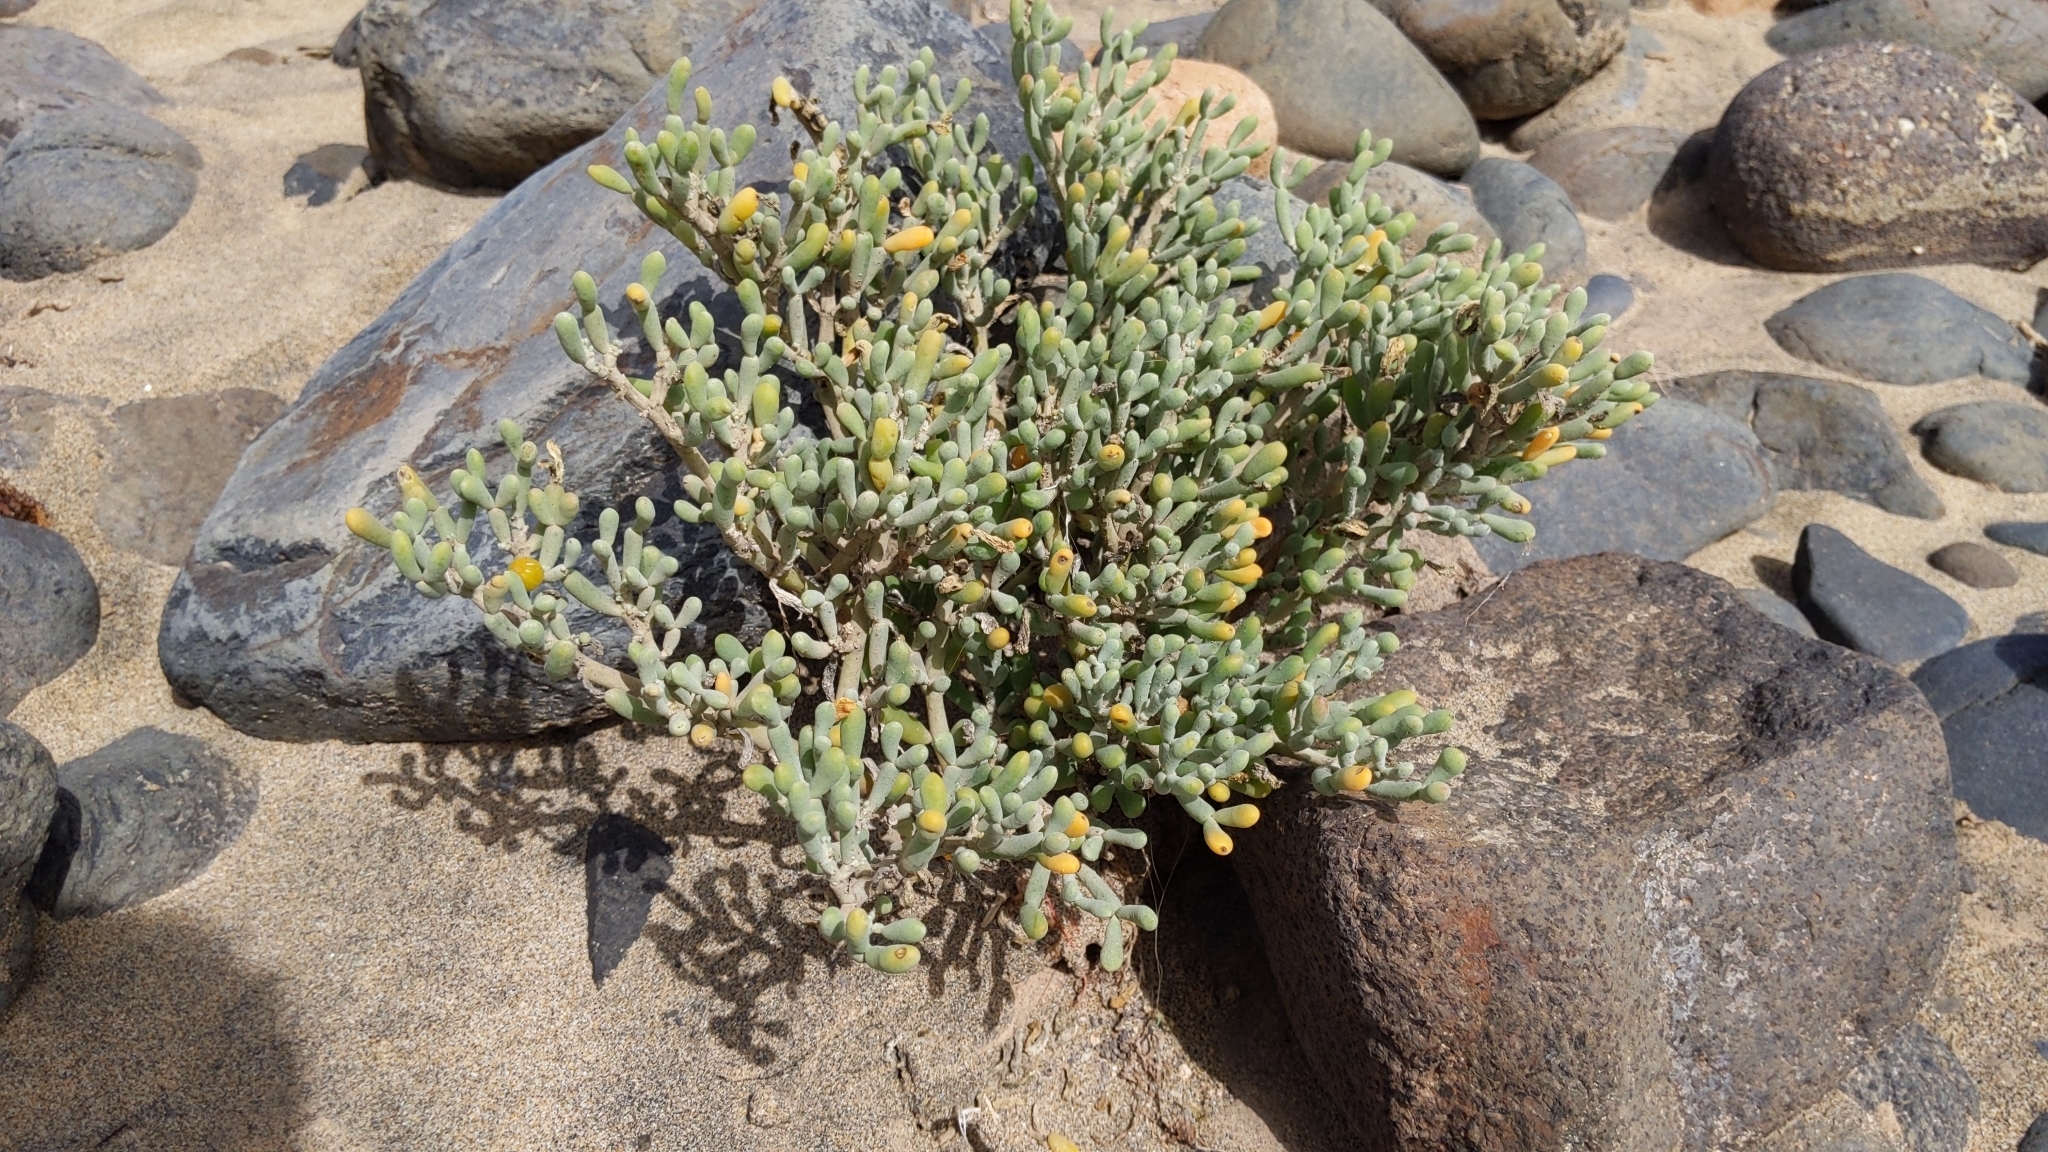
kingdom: Plantae
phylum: Tracheophyta
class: Magnoliopsida
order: Zygophyllales
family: Zygophyllaceae
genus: Tetraena
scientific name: Tetraena fontanesii
